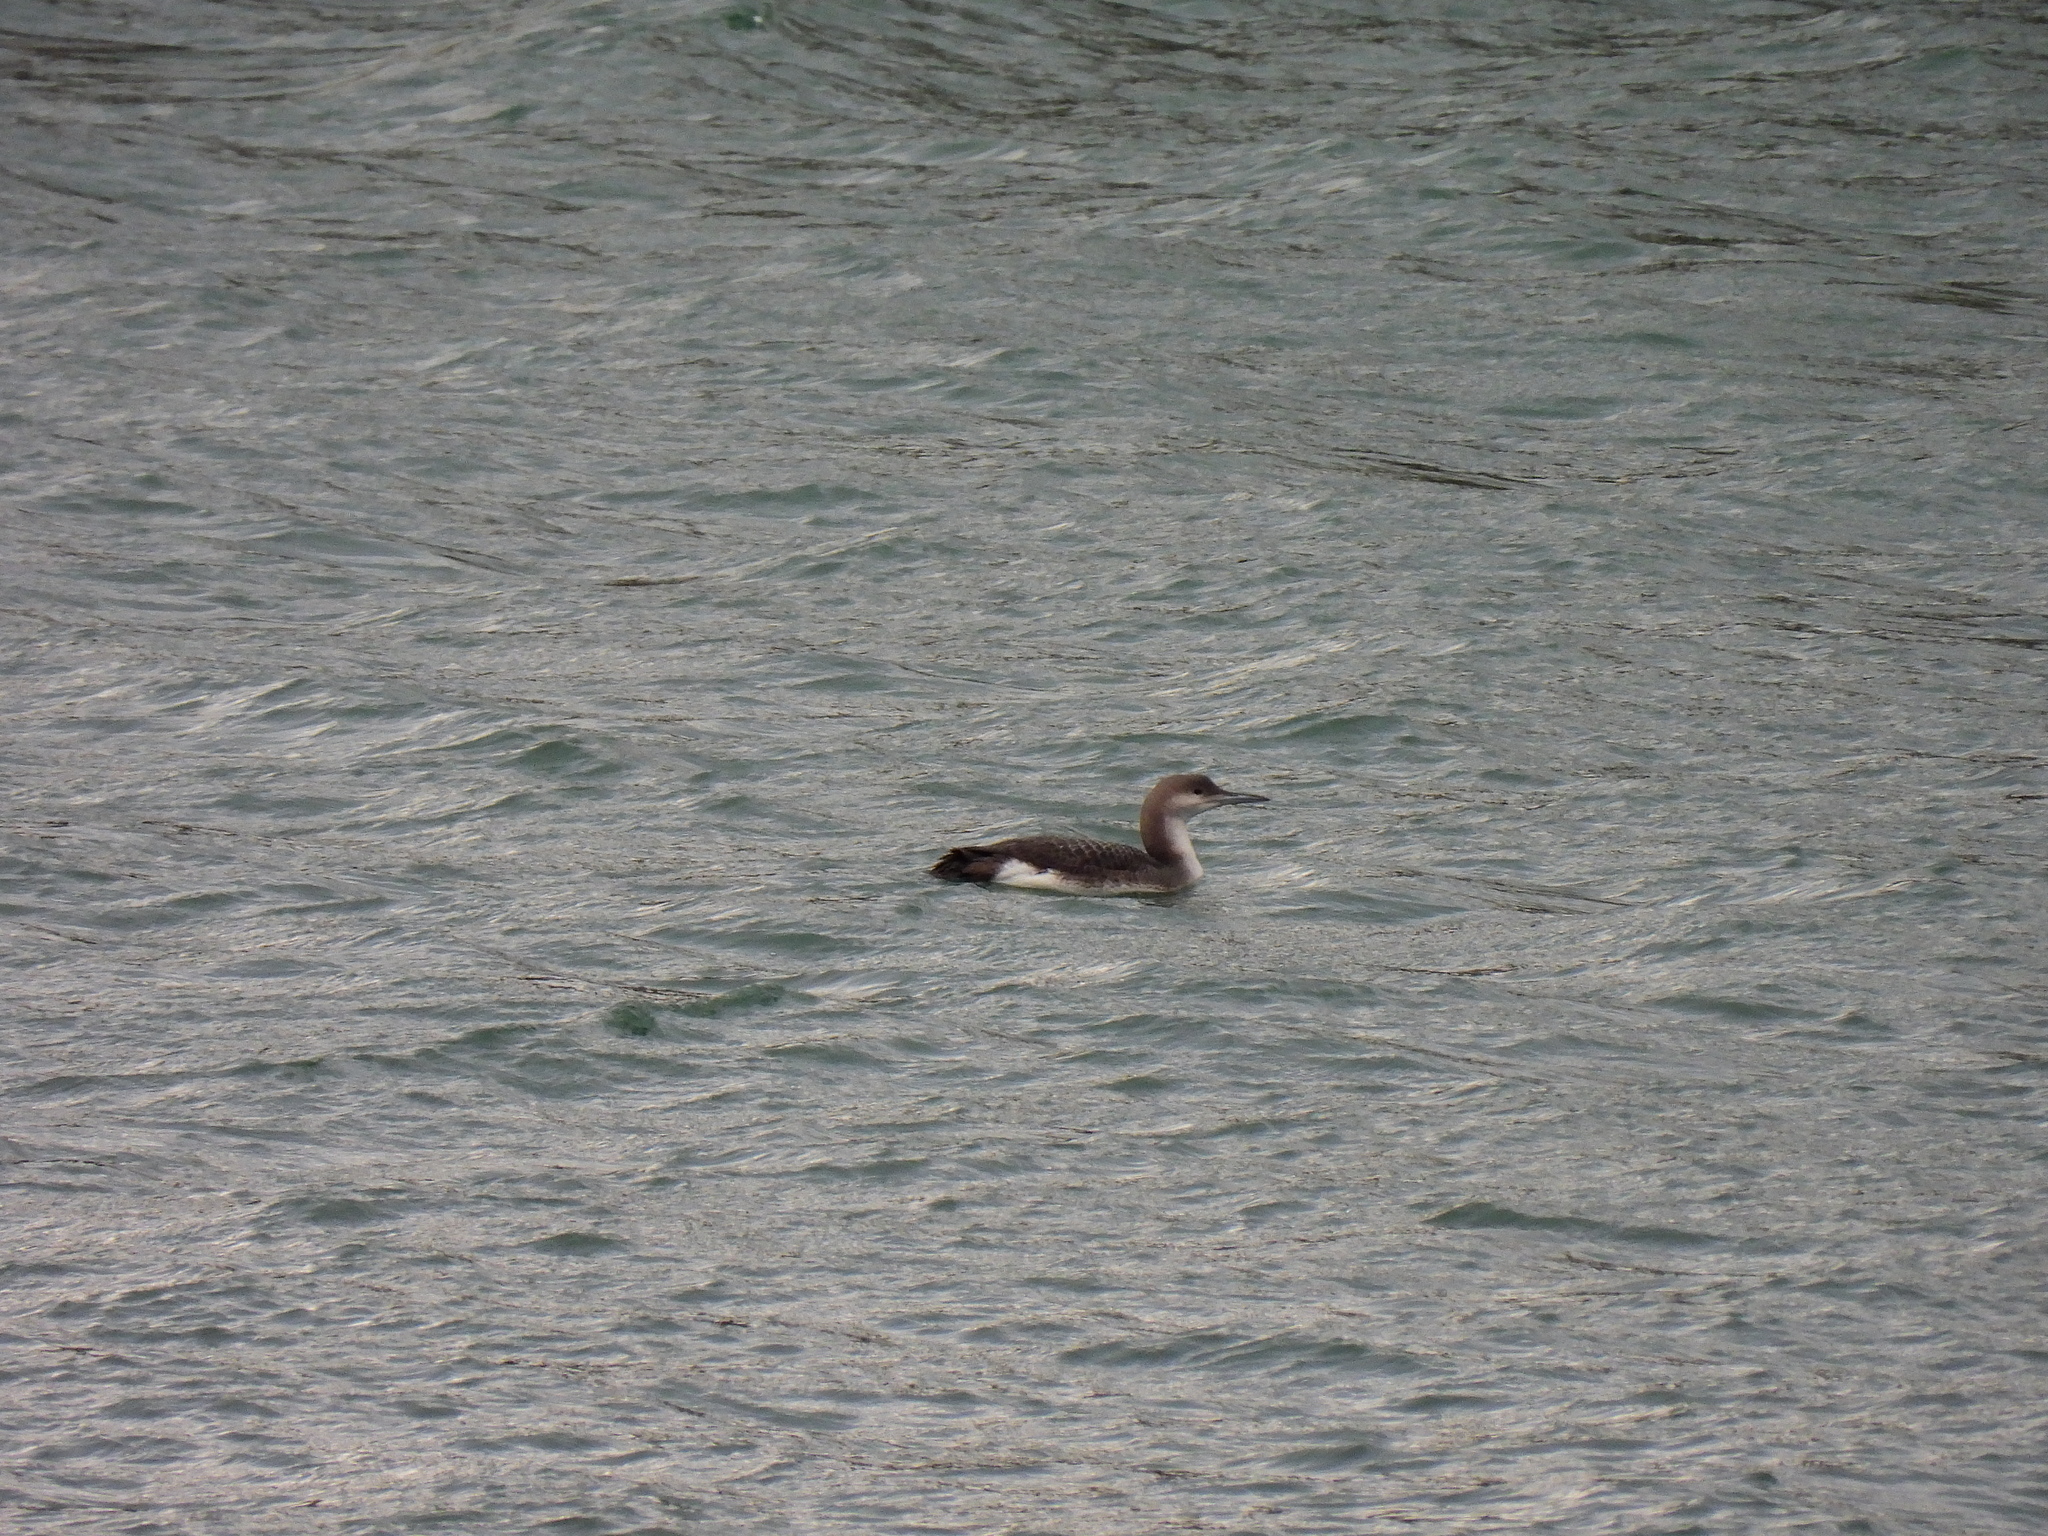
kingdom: Animalia
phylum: Chordata
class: Aves
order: Gaviiformes
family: Gaviidae
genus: Gavia
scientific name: Gavia arctica
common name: Black-throated loon
